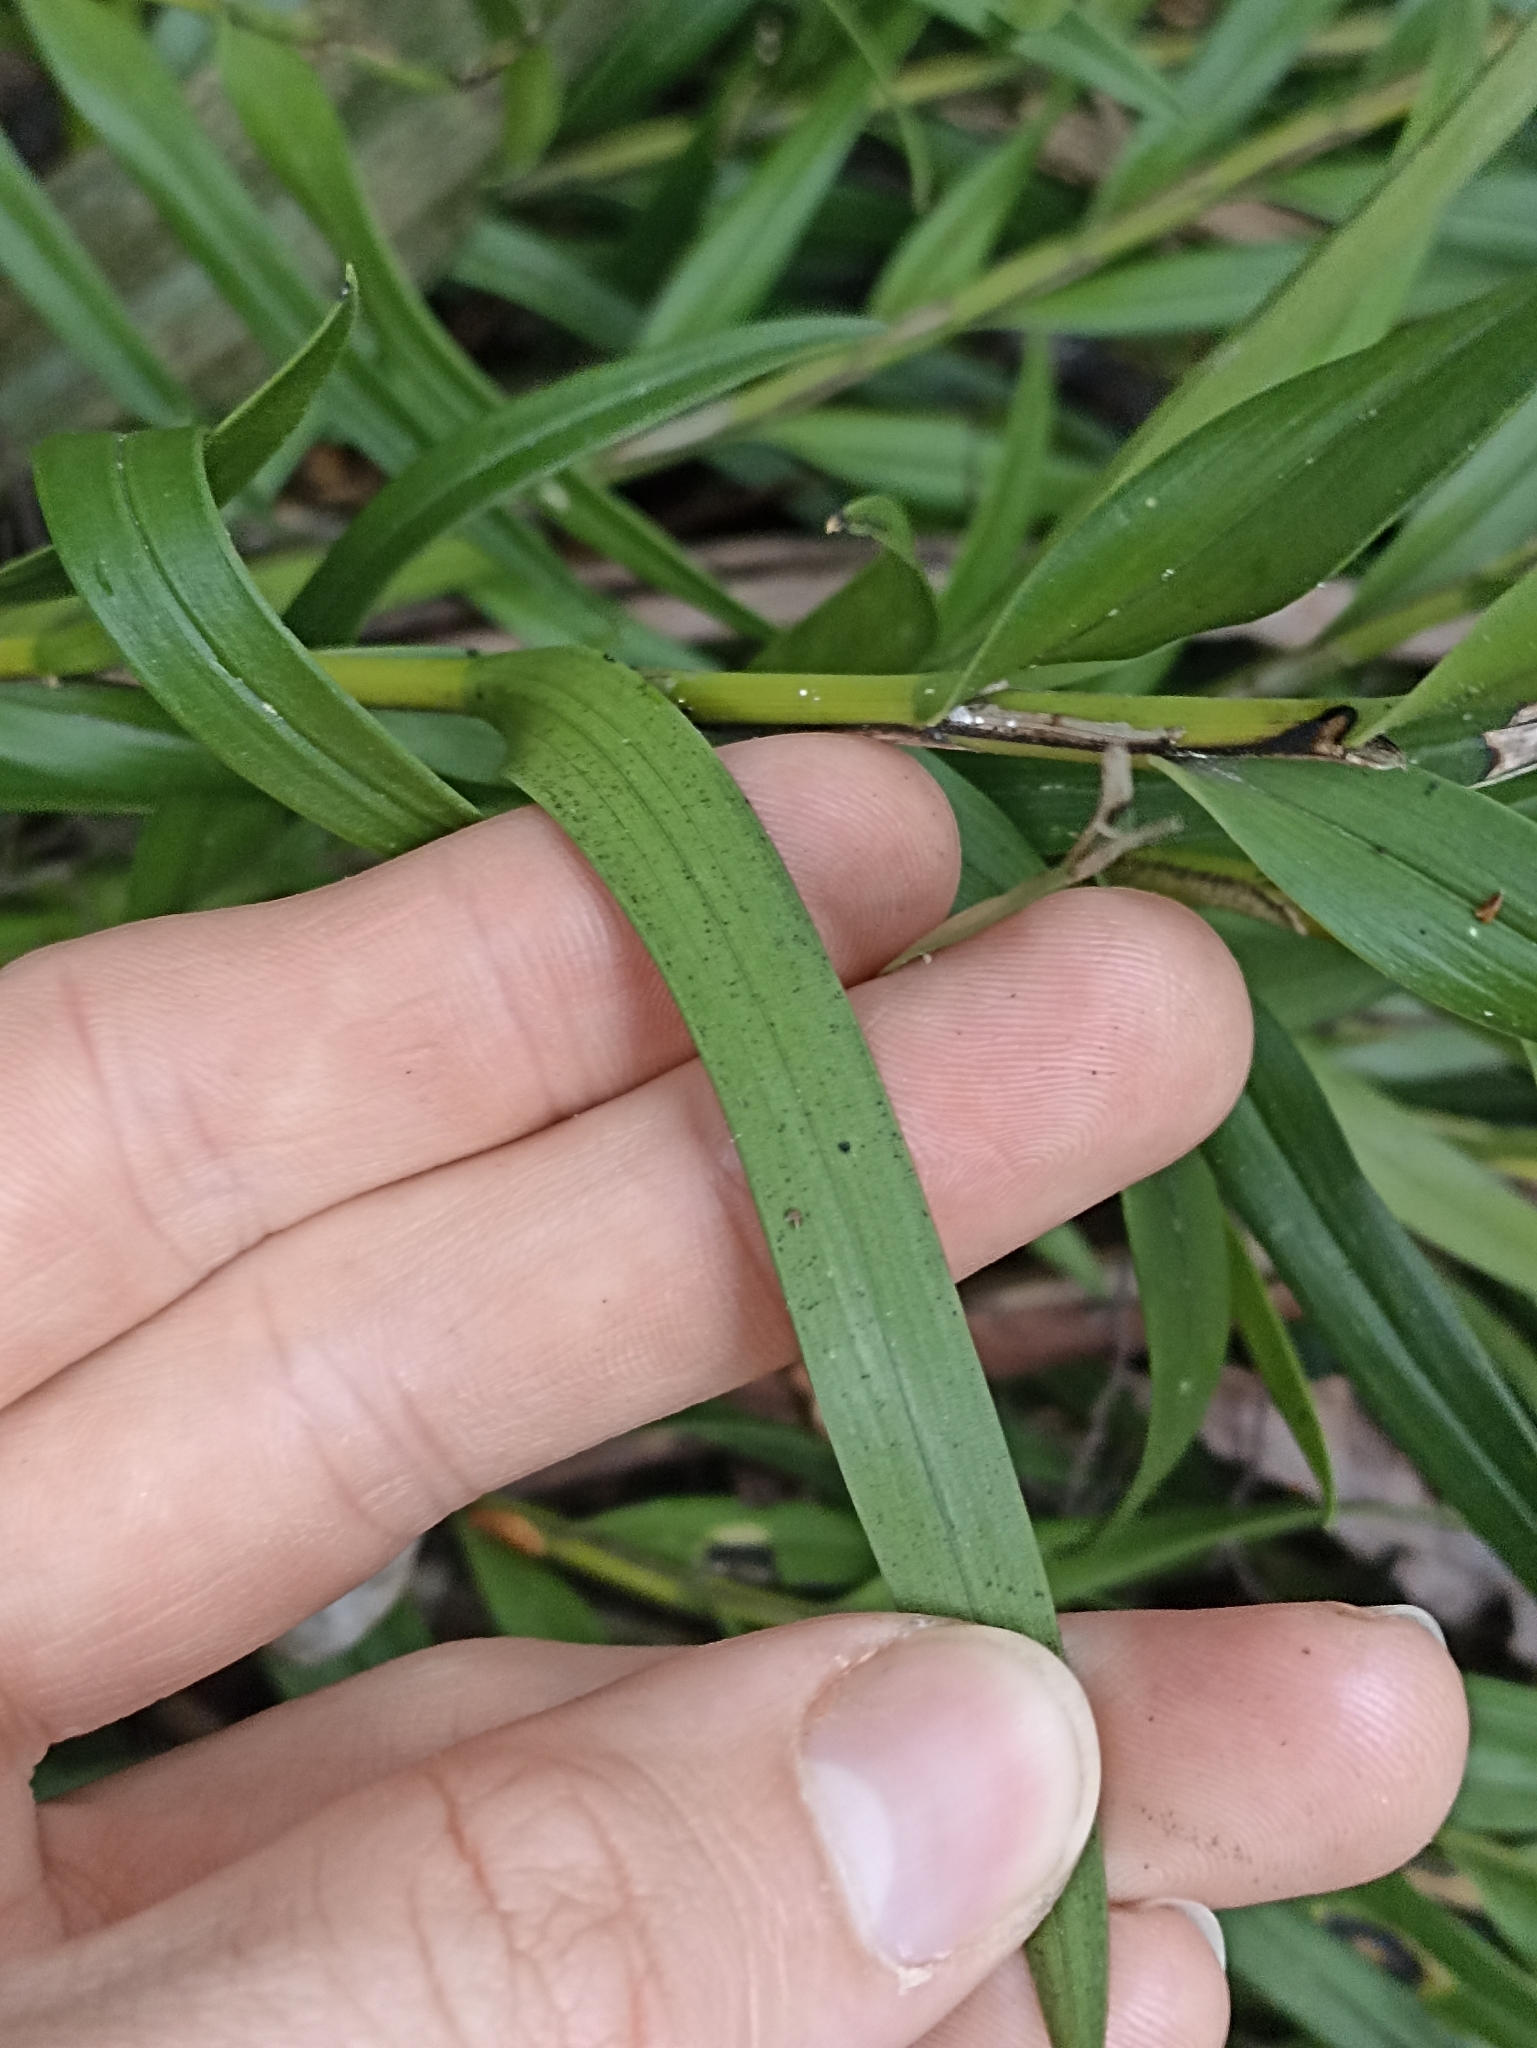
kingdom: Plantae
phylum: Tracheophyta
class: Liliopsida
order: Asparagales
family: Orchidaceae
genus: Earina
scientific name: Earina autumnalis
